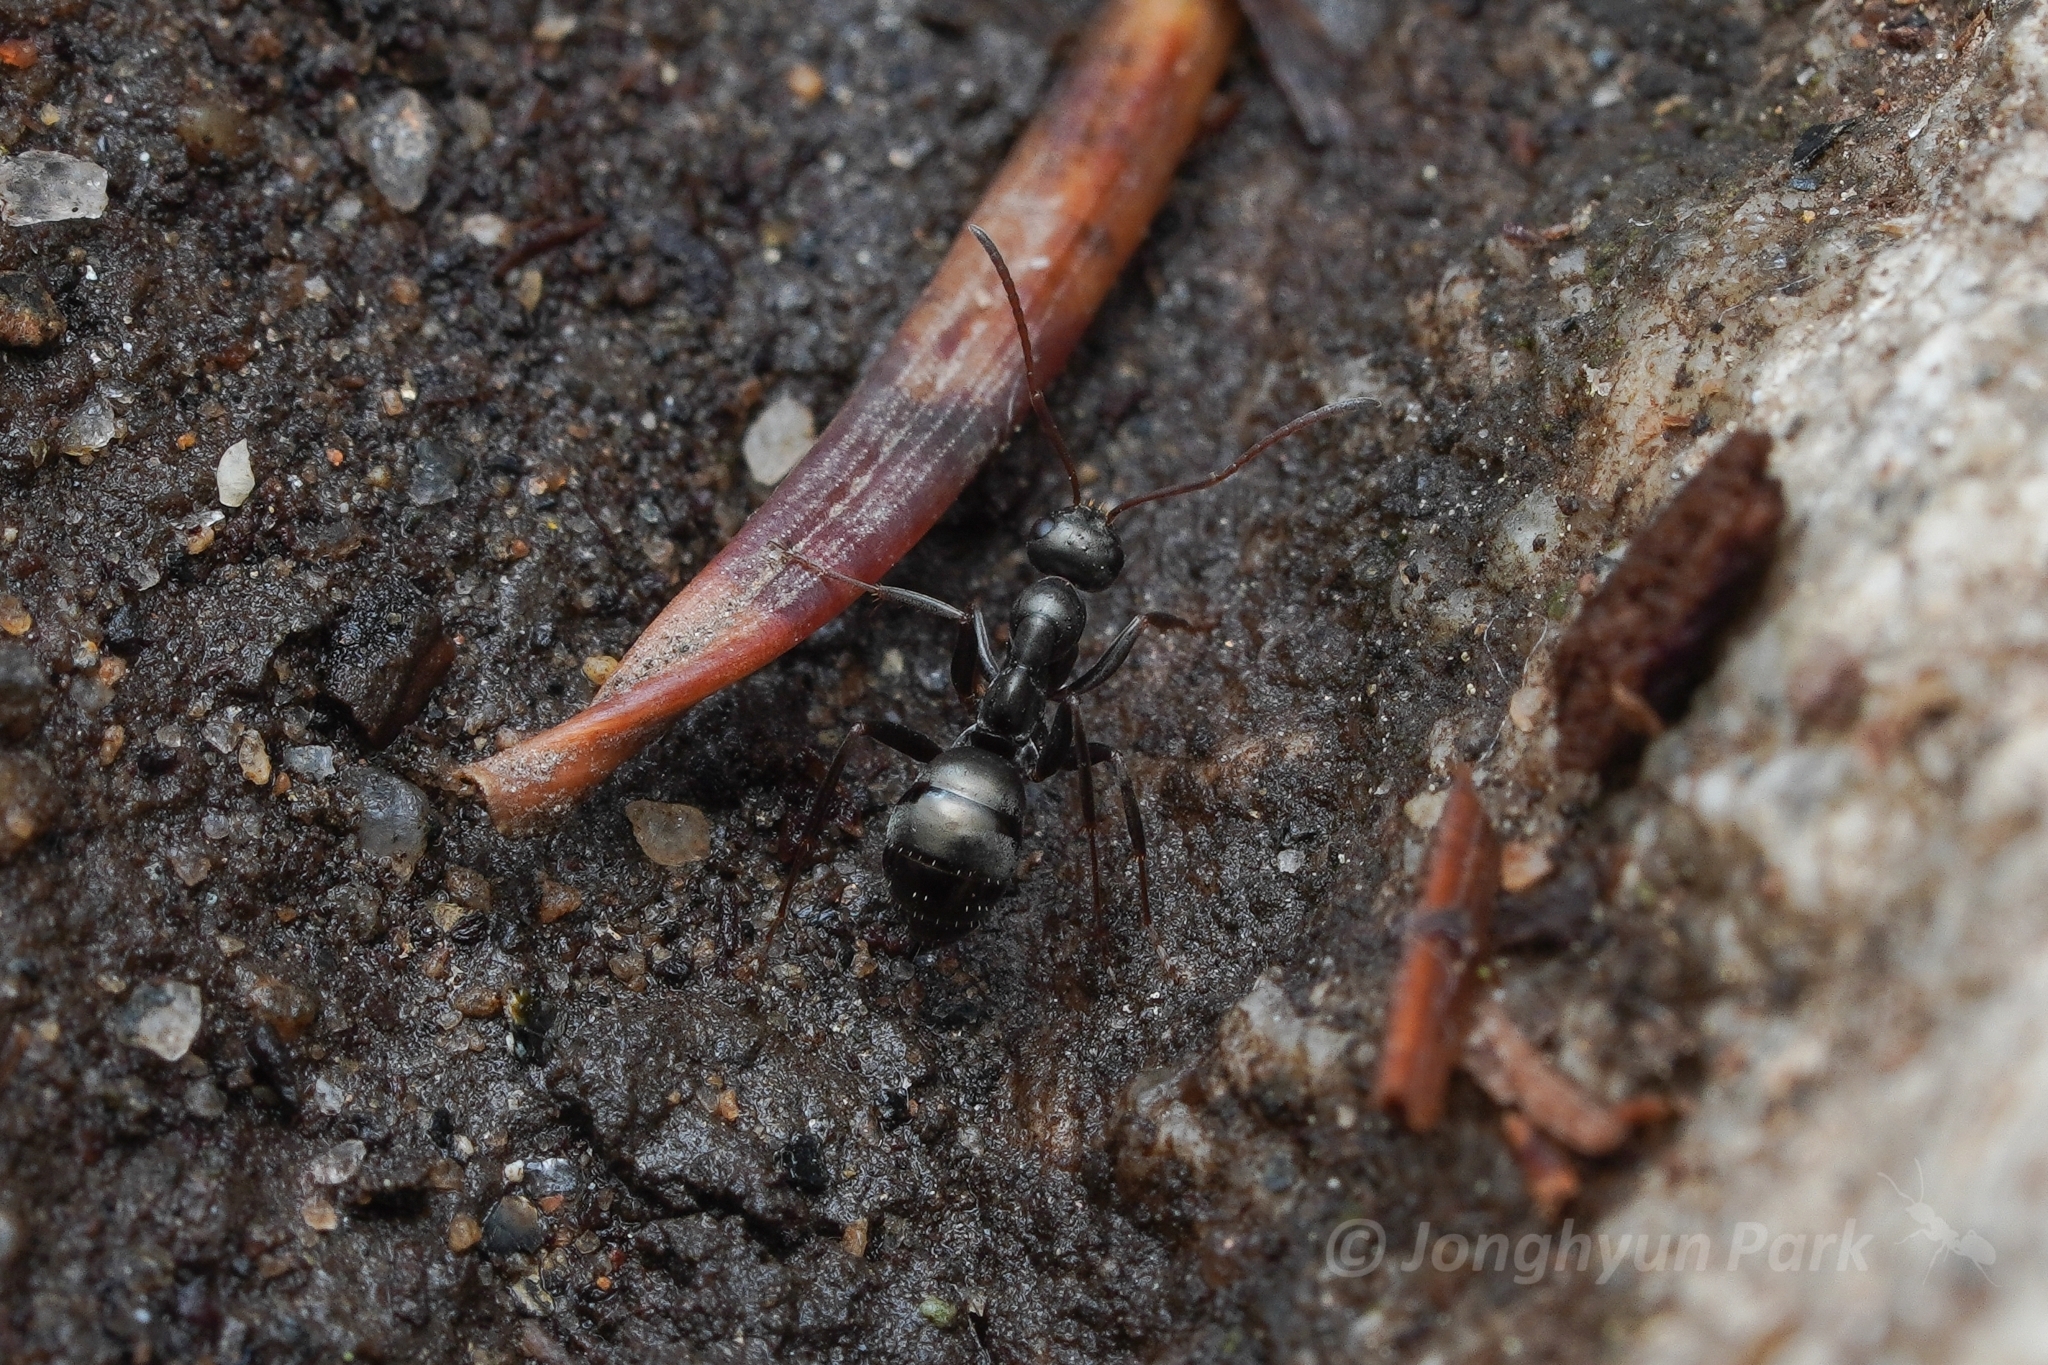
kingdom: Animalia
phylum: Arthropoda
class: Insecta
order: Hymenoptera
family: Formicidae
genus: Formica
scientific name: Formica accreta
